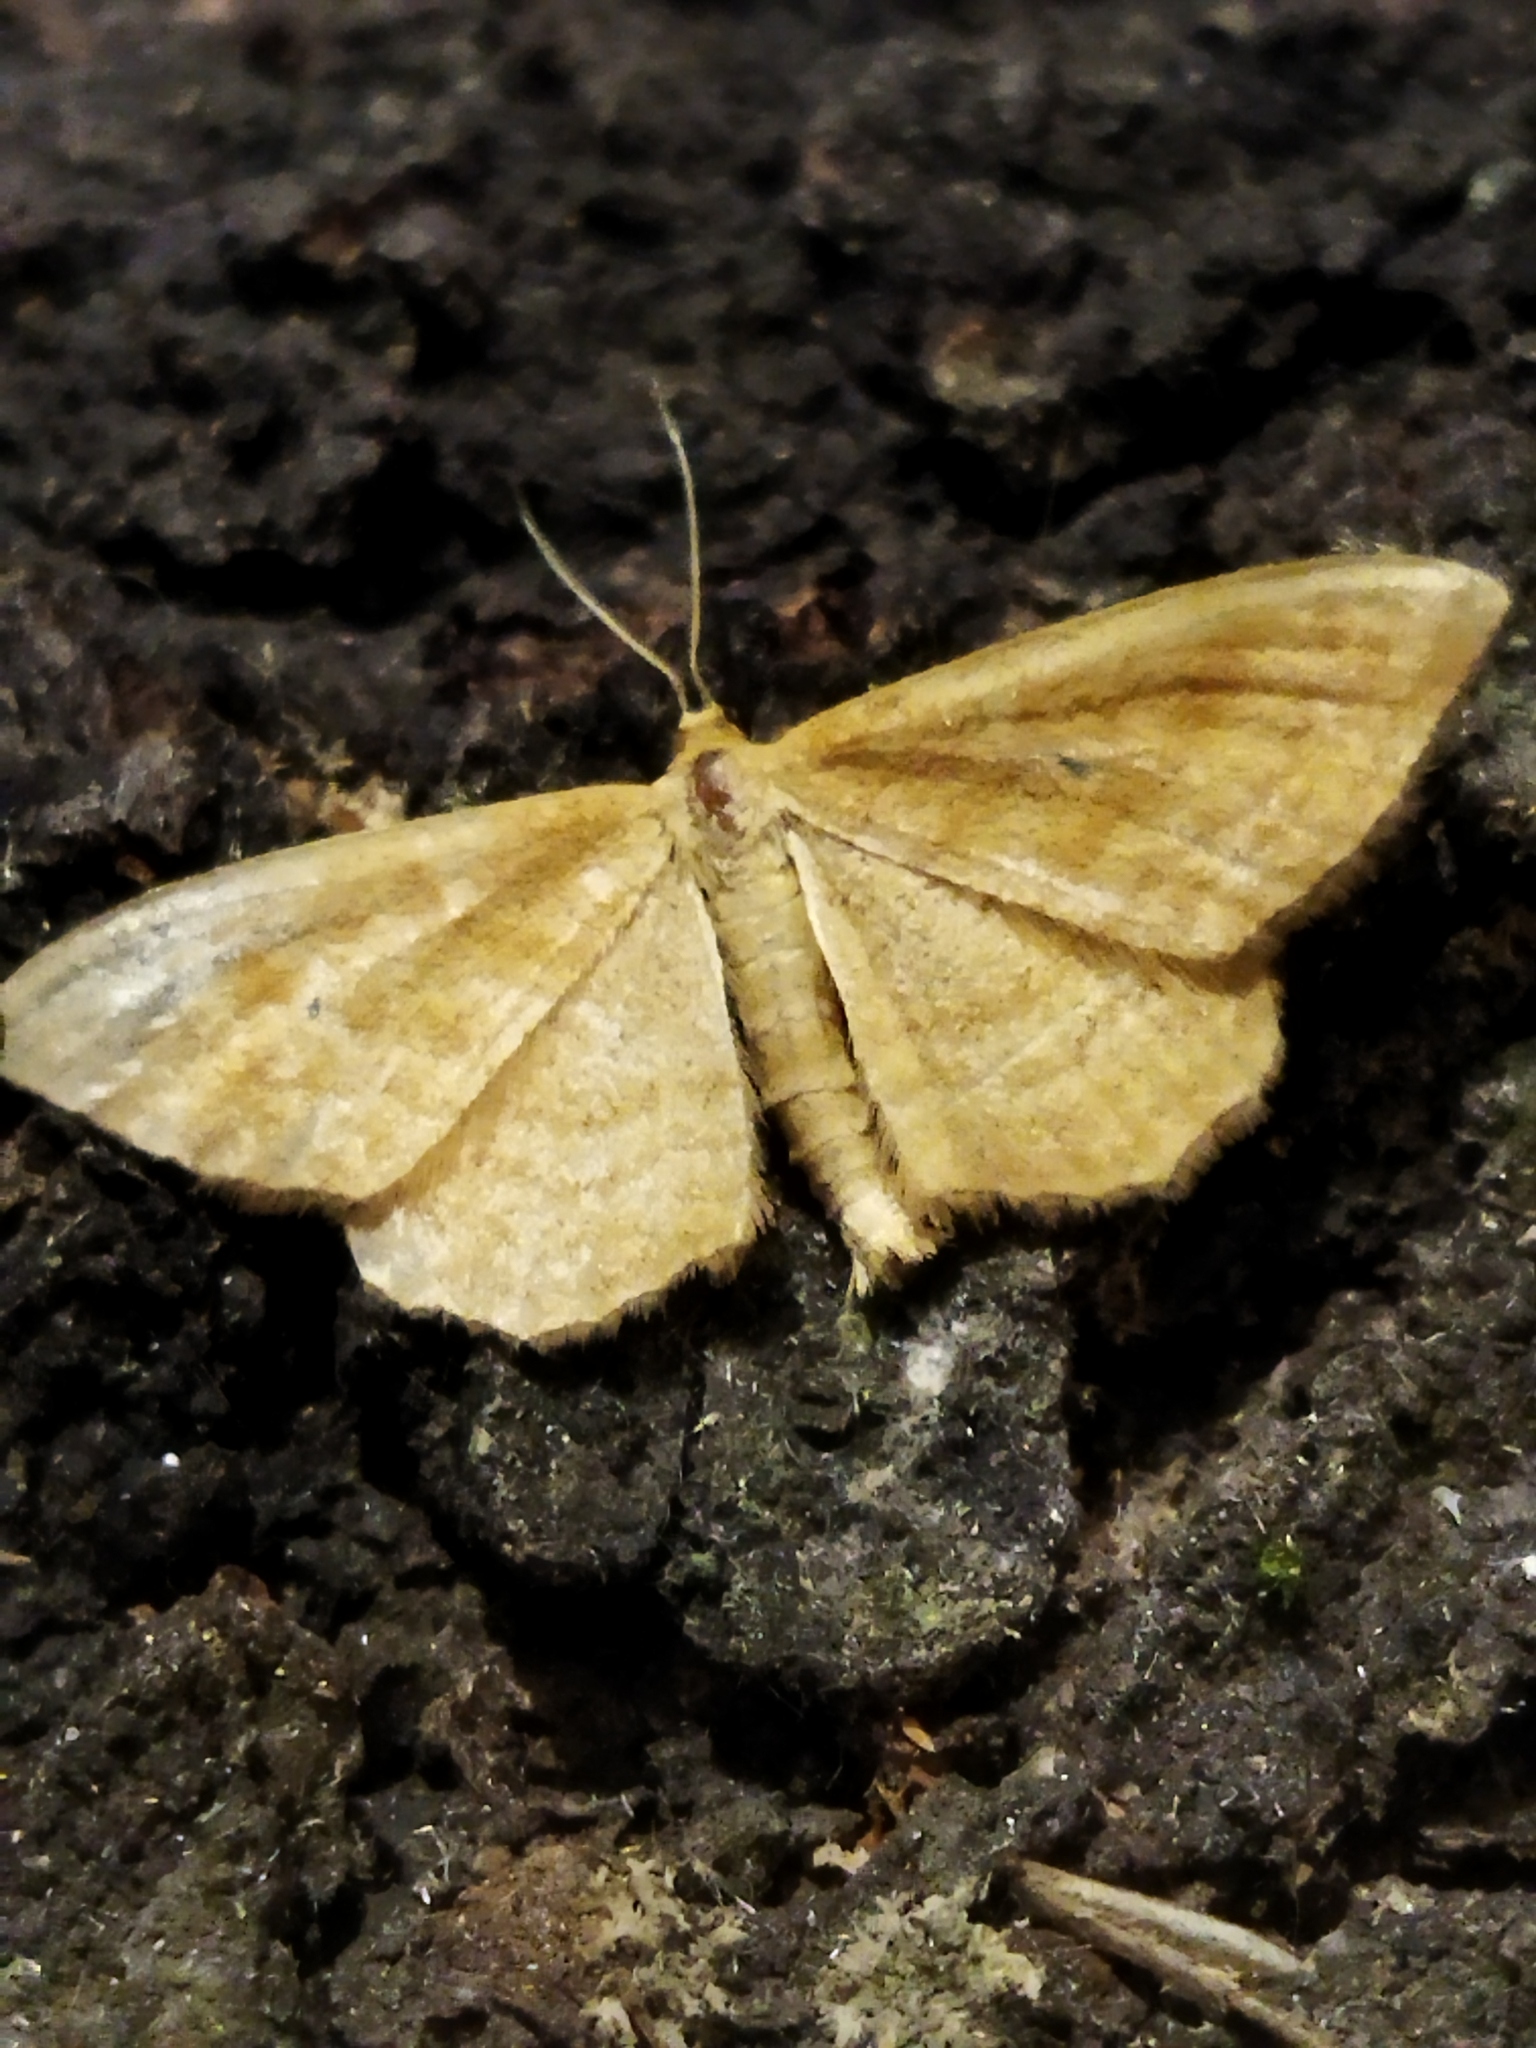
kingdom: Animalia
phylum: Arthropoda
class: Insecta
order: Lepidoptera
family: Geometridae
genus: Idaea
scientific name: Idaea ochrata
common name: Bright wave
